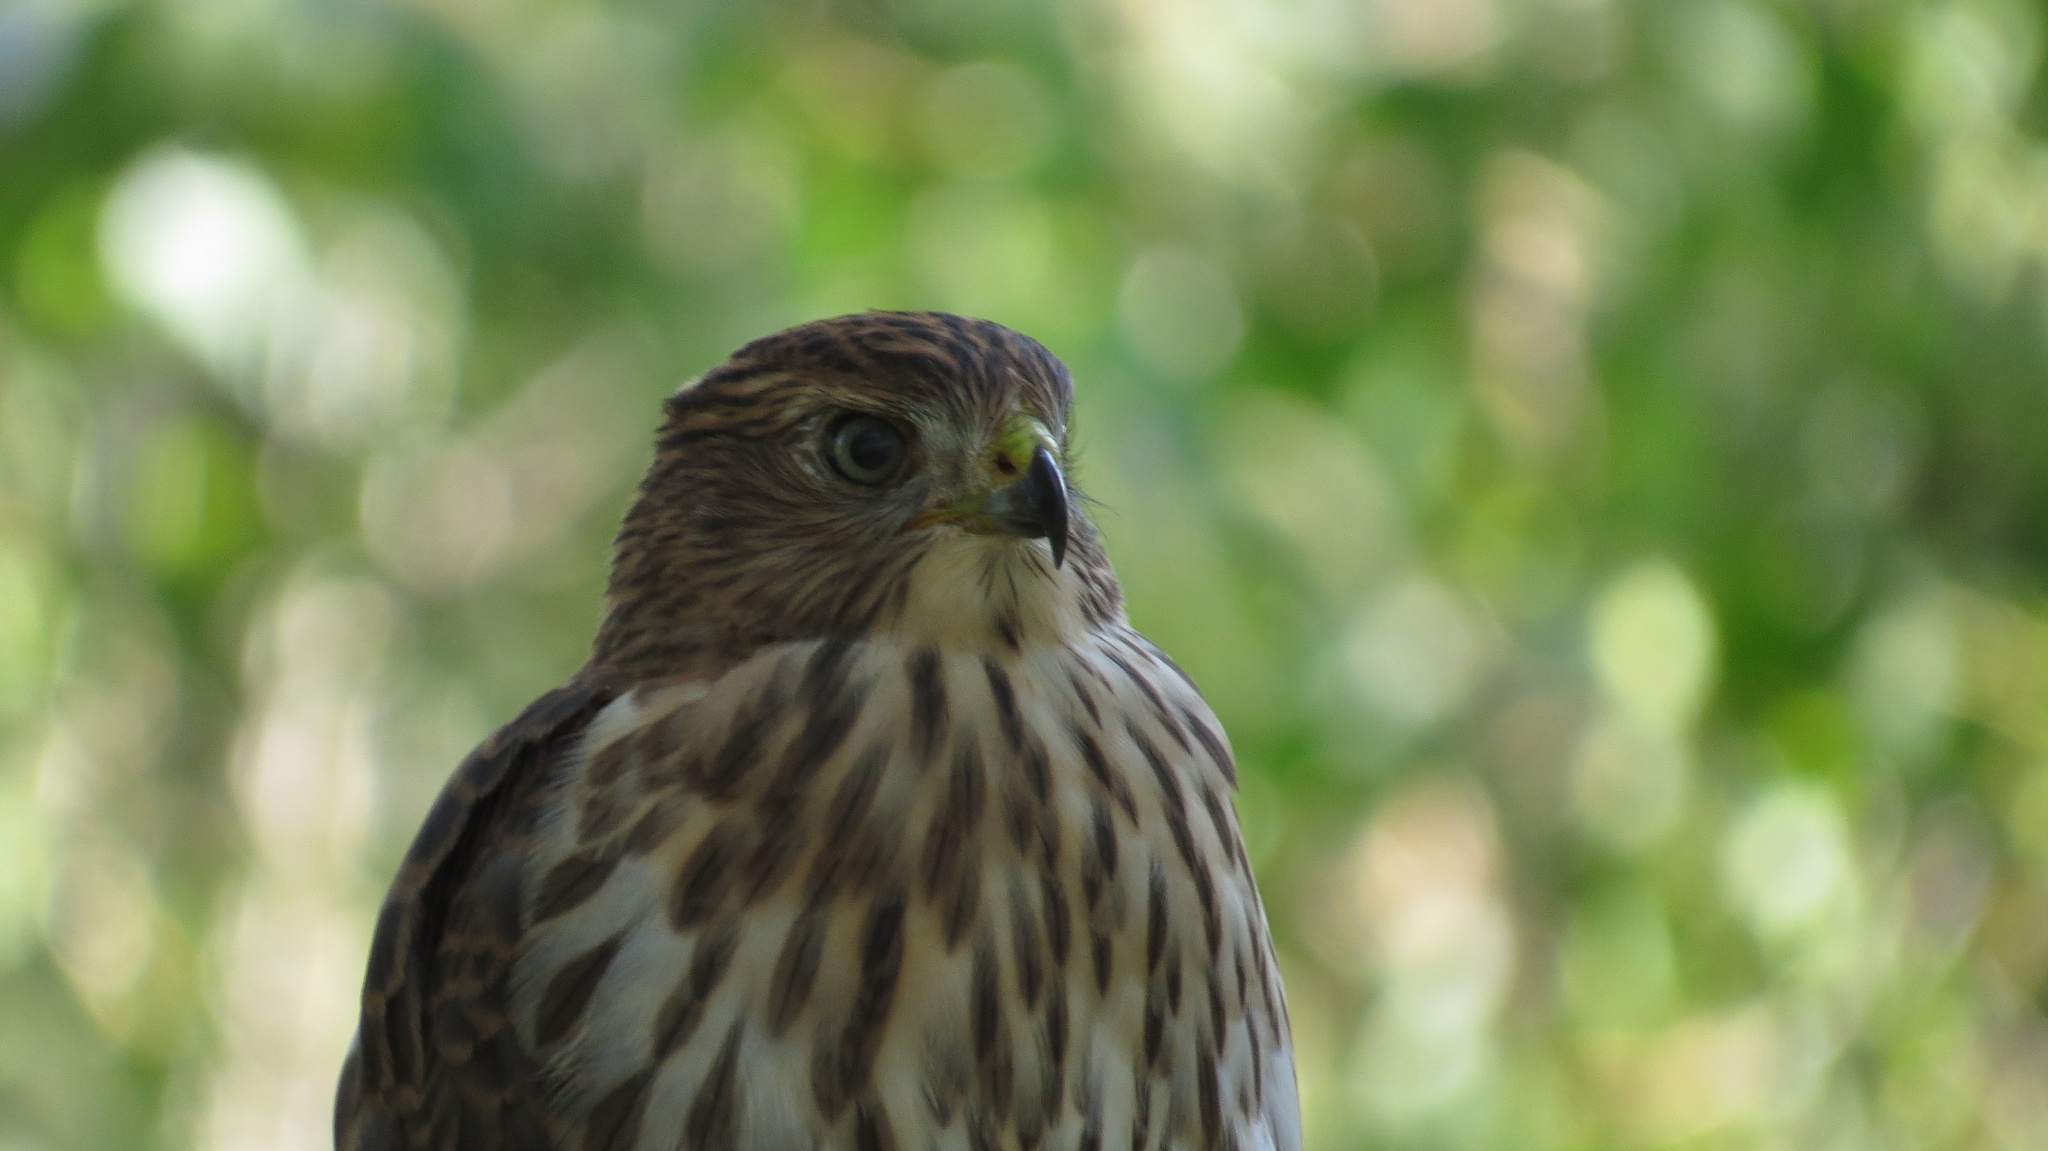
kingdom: Animalia
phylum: Chordata
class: Aves
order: Accipitriformes
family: Accipitridae
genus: Accipiter
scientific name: Accipiter cooperii
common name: Cooper's hawk
